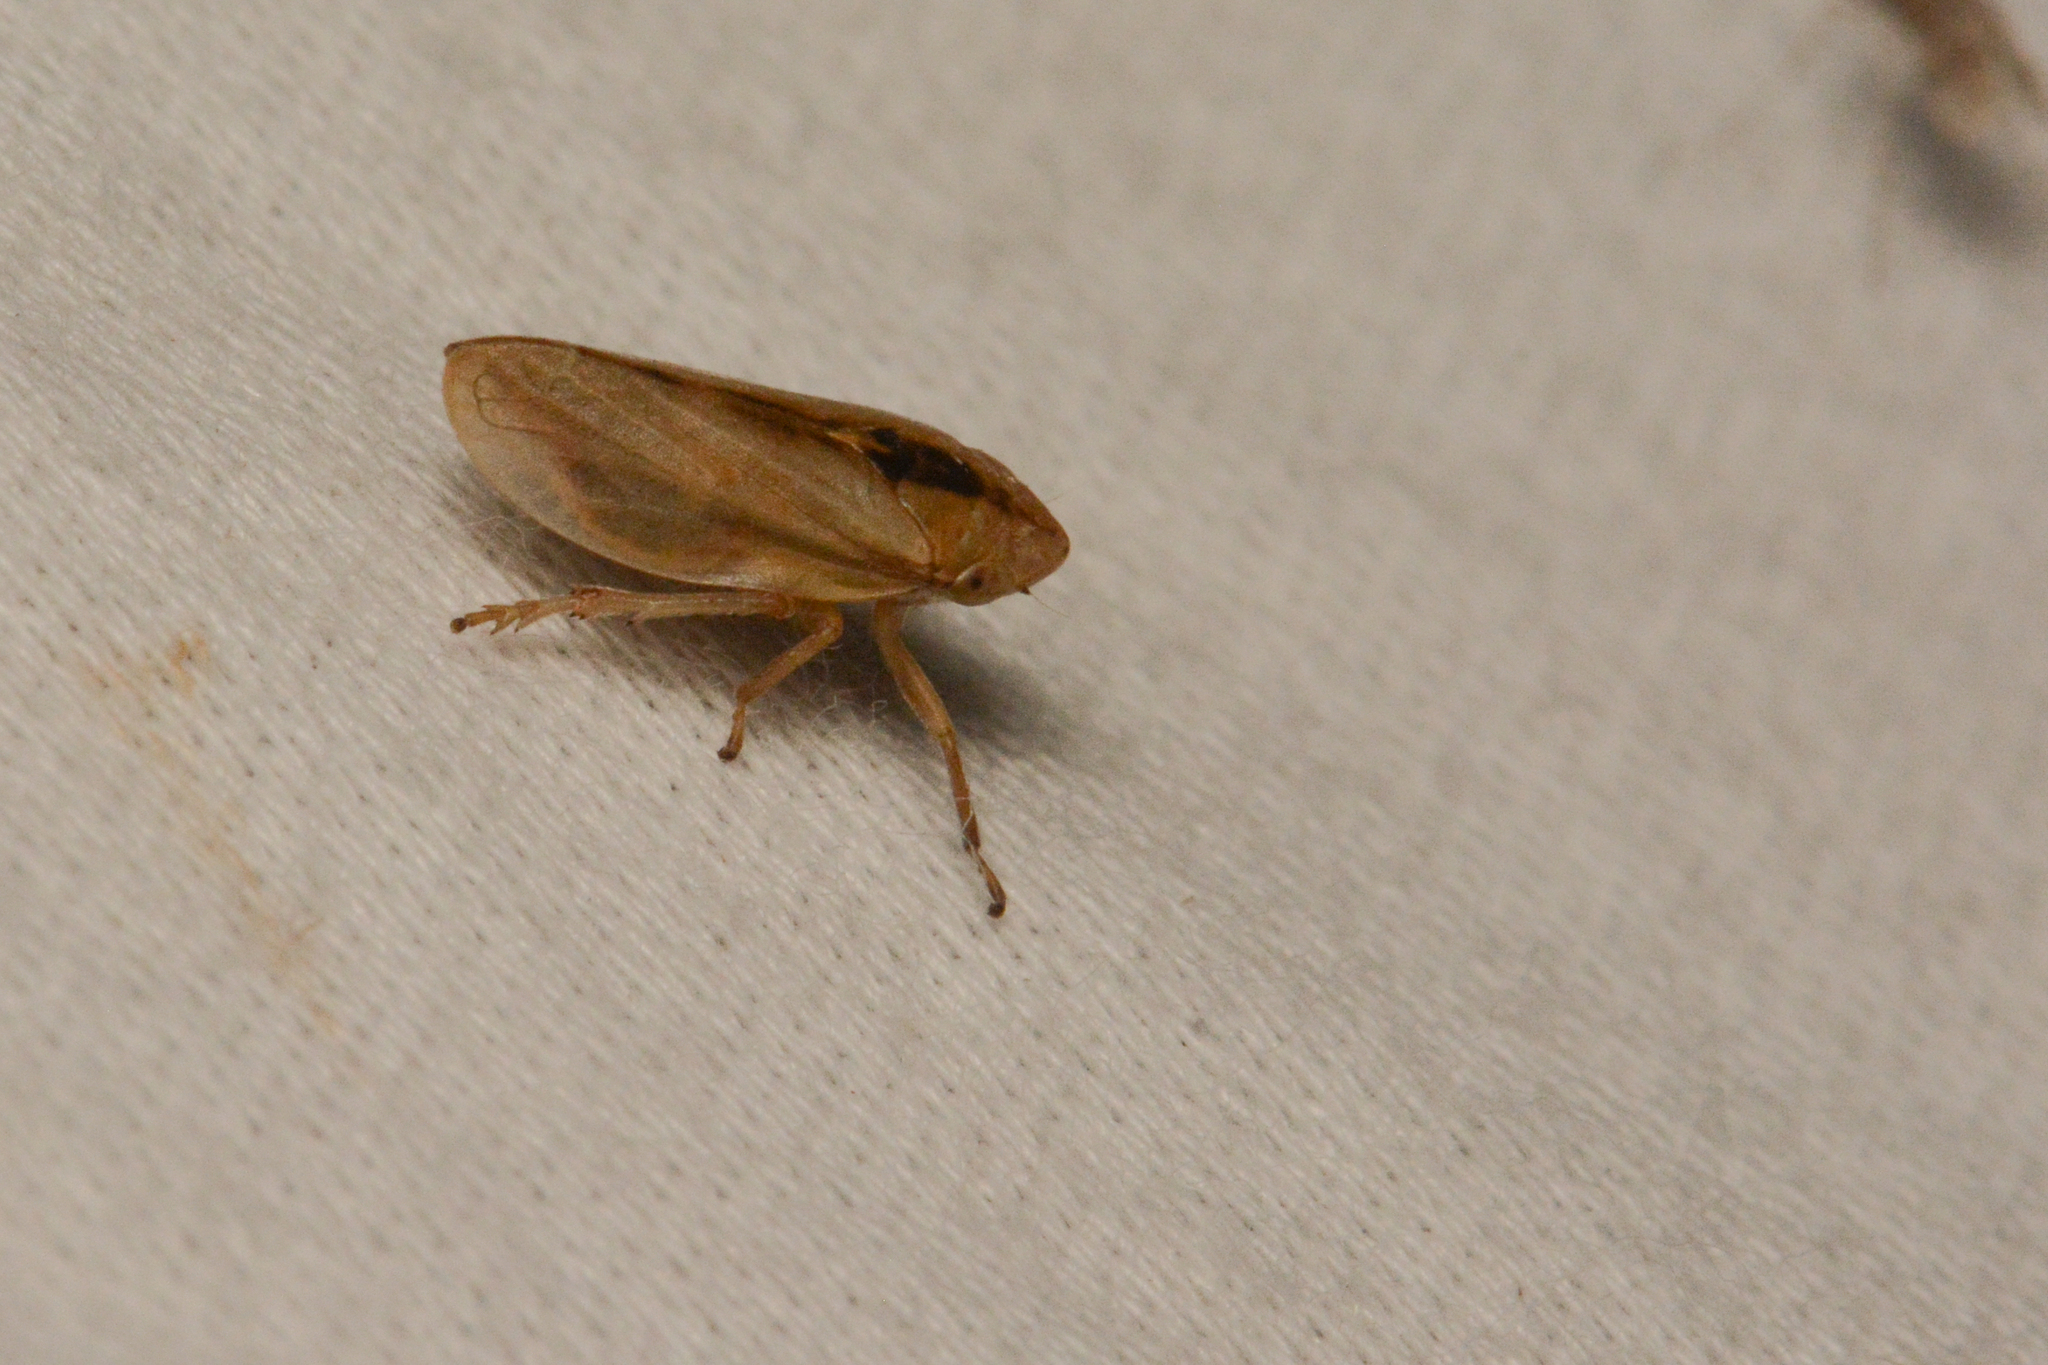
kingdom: Animalia
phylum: Arthropoda
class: Insecta
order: Hemiptera
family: Aphrophoridae
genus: Philaenus
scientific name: Philaenus spumarius
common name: Meadow spittlebug
